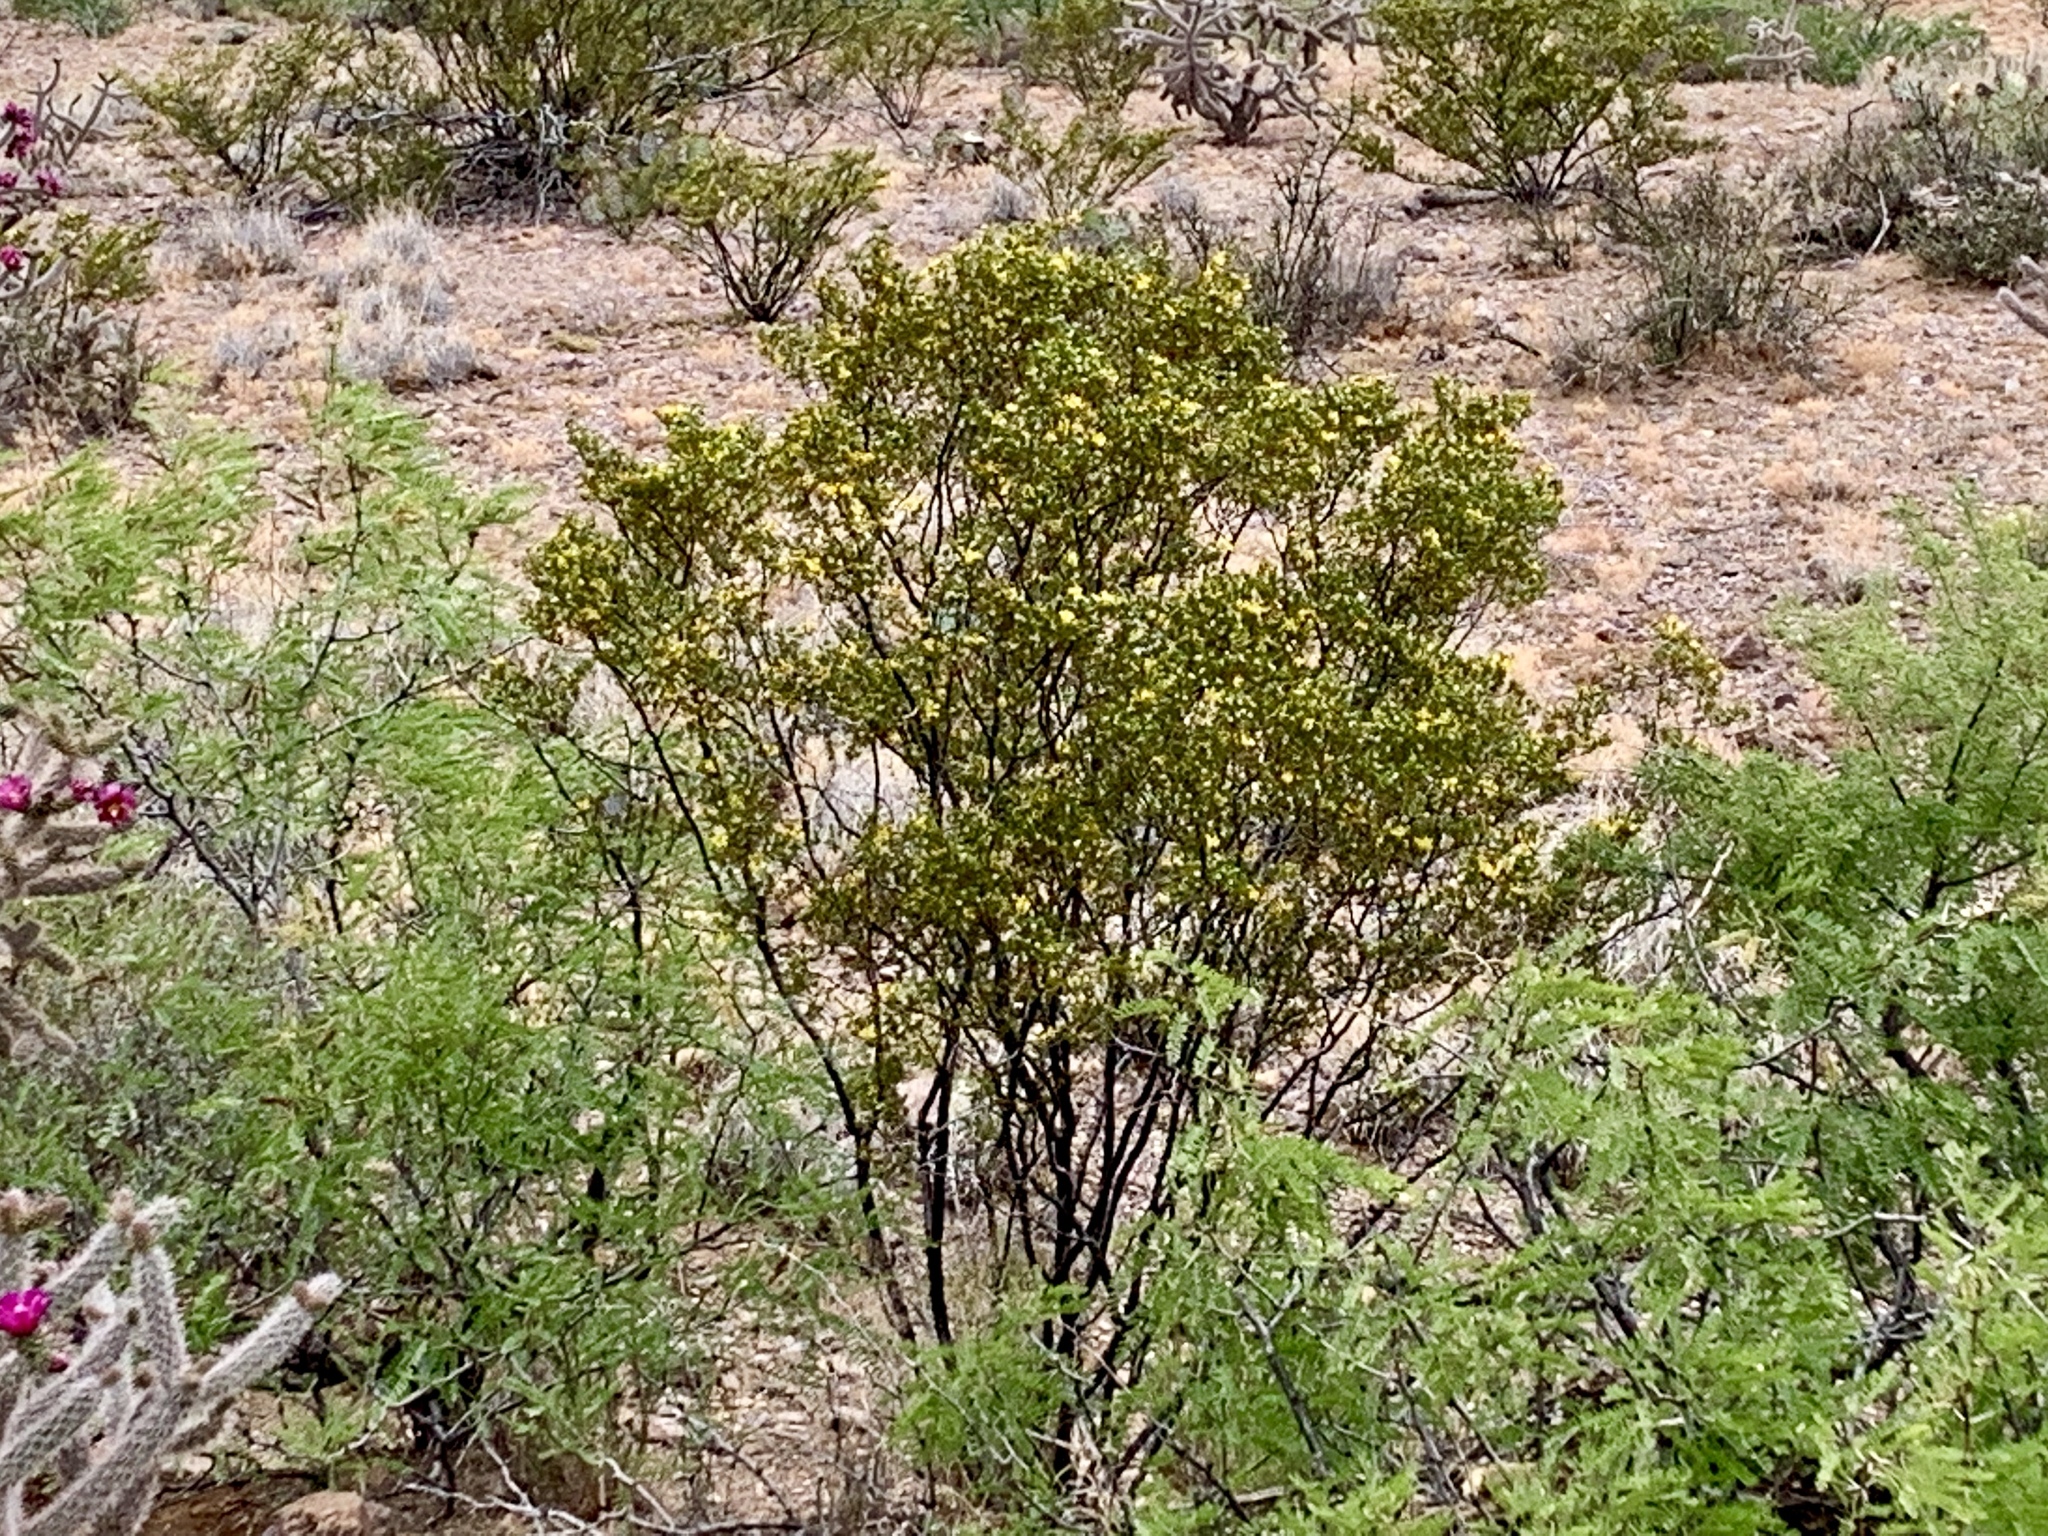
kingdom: Plantae
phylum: Tracheophyta
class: Magnoliopsida
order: Zygophyllales
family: Zygophyllaceae
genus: Larrea
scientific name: Larrea tridentata
